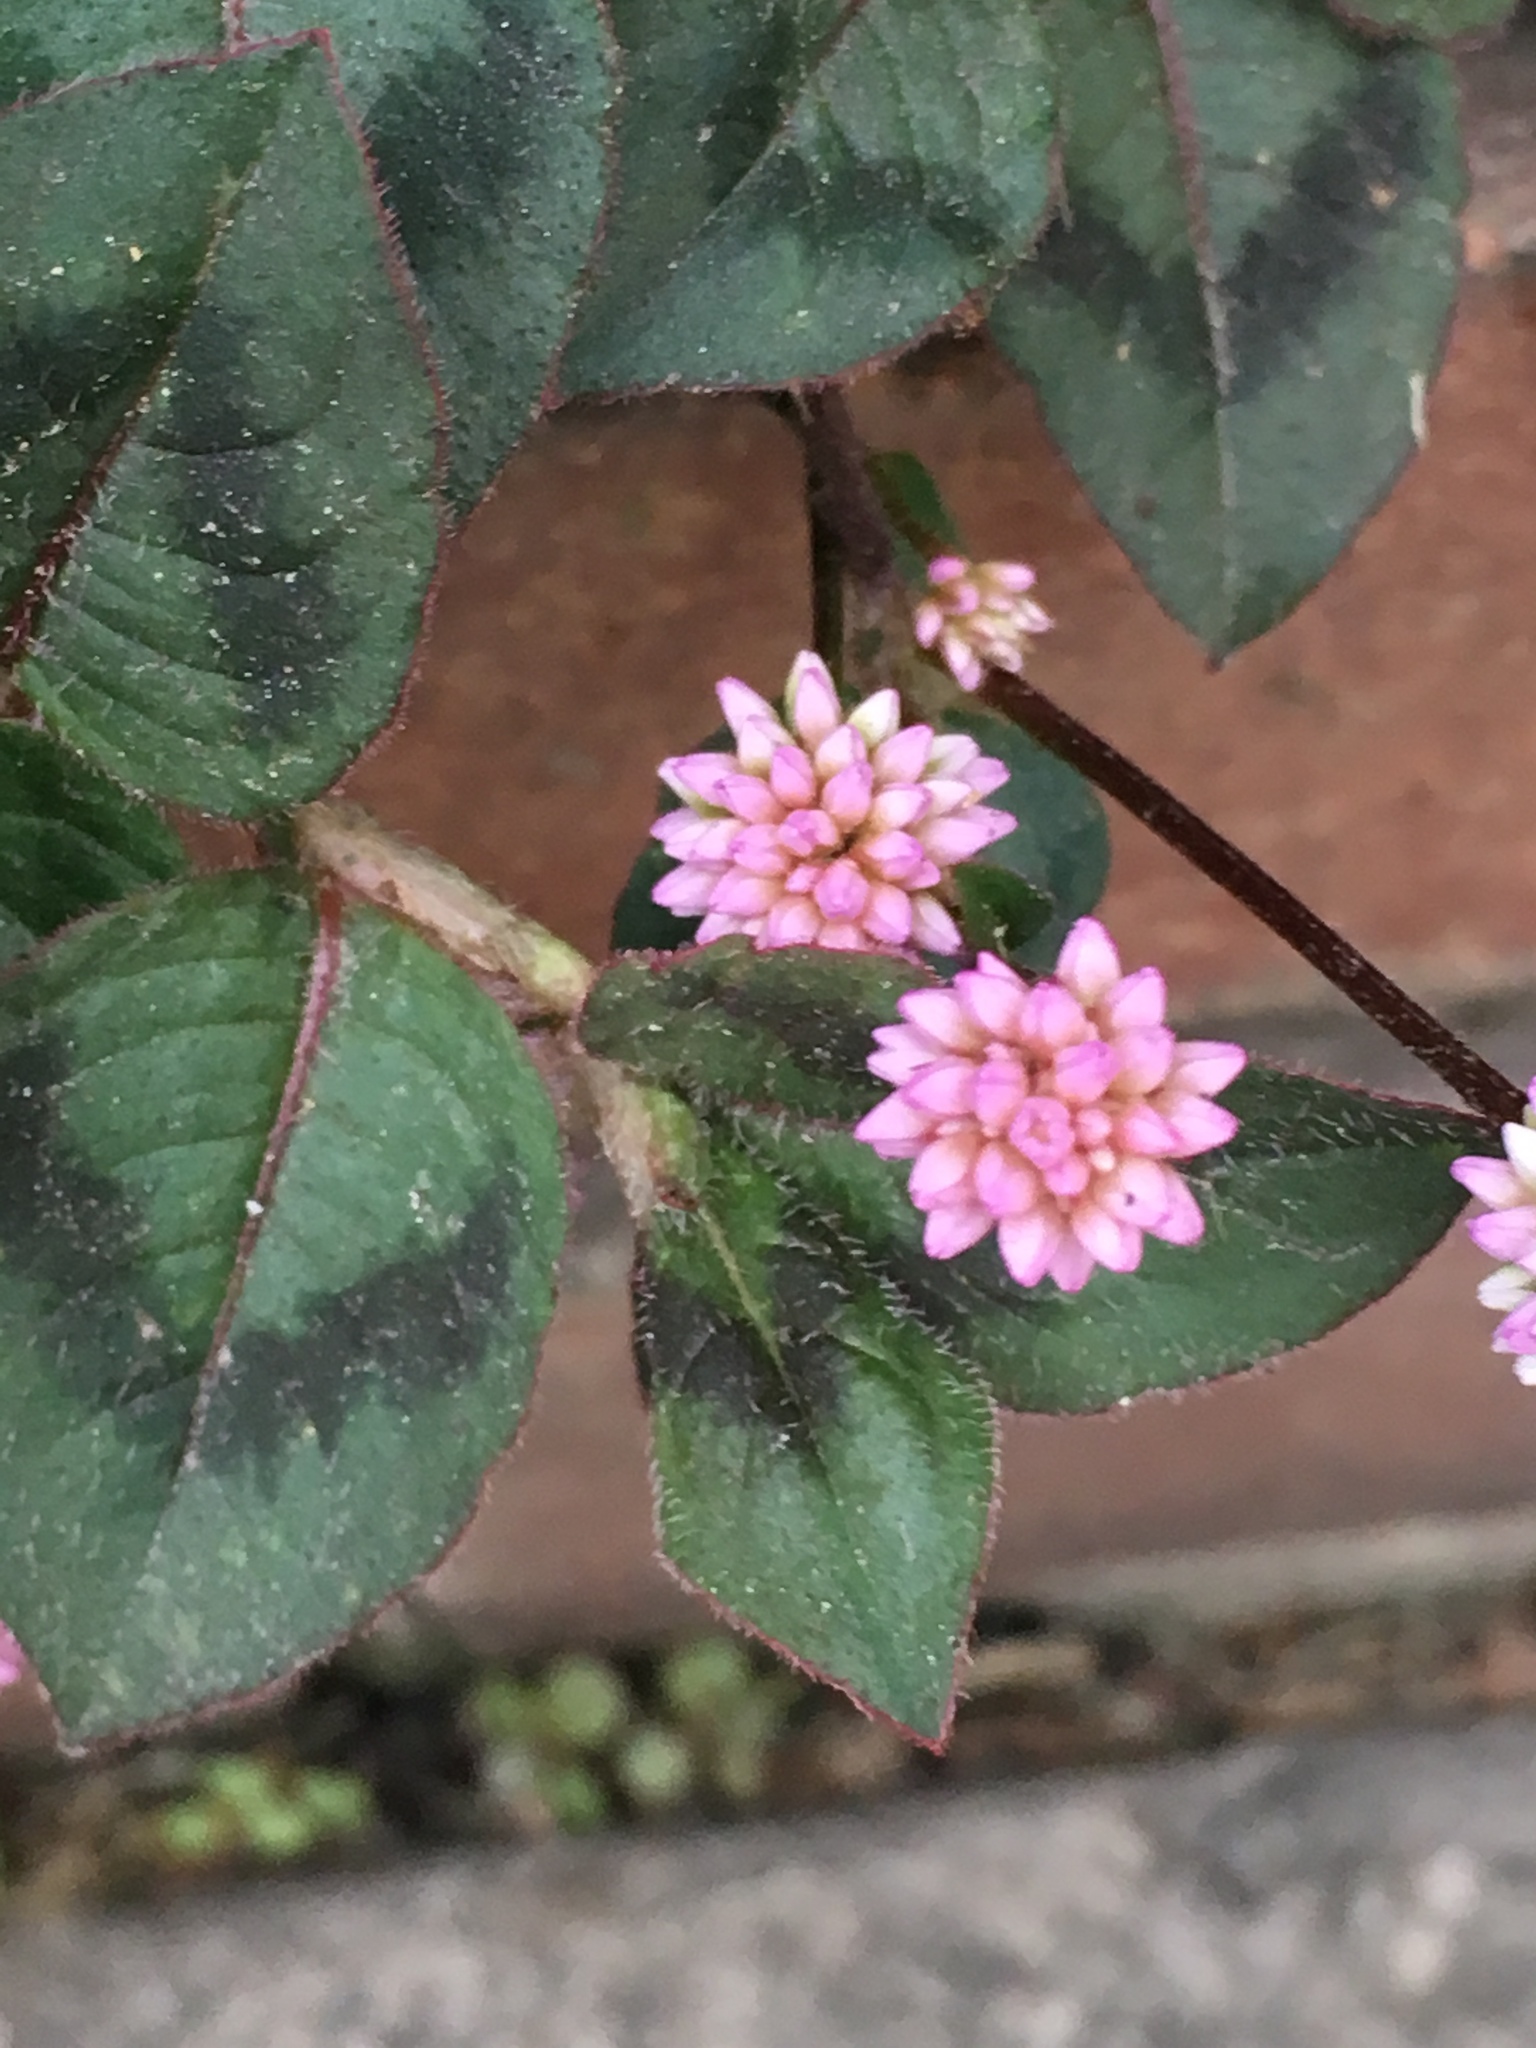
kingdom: Plantae
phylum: Tracheophyta
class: Magnoliopsida
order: Caryophyllales
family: Polygonaceae
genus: Persicaria
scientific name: Persicaria capitata
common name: Pinkhead smartweed
